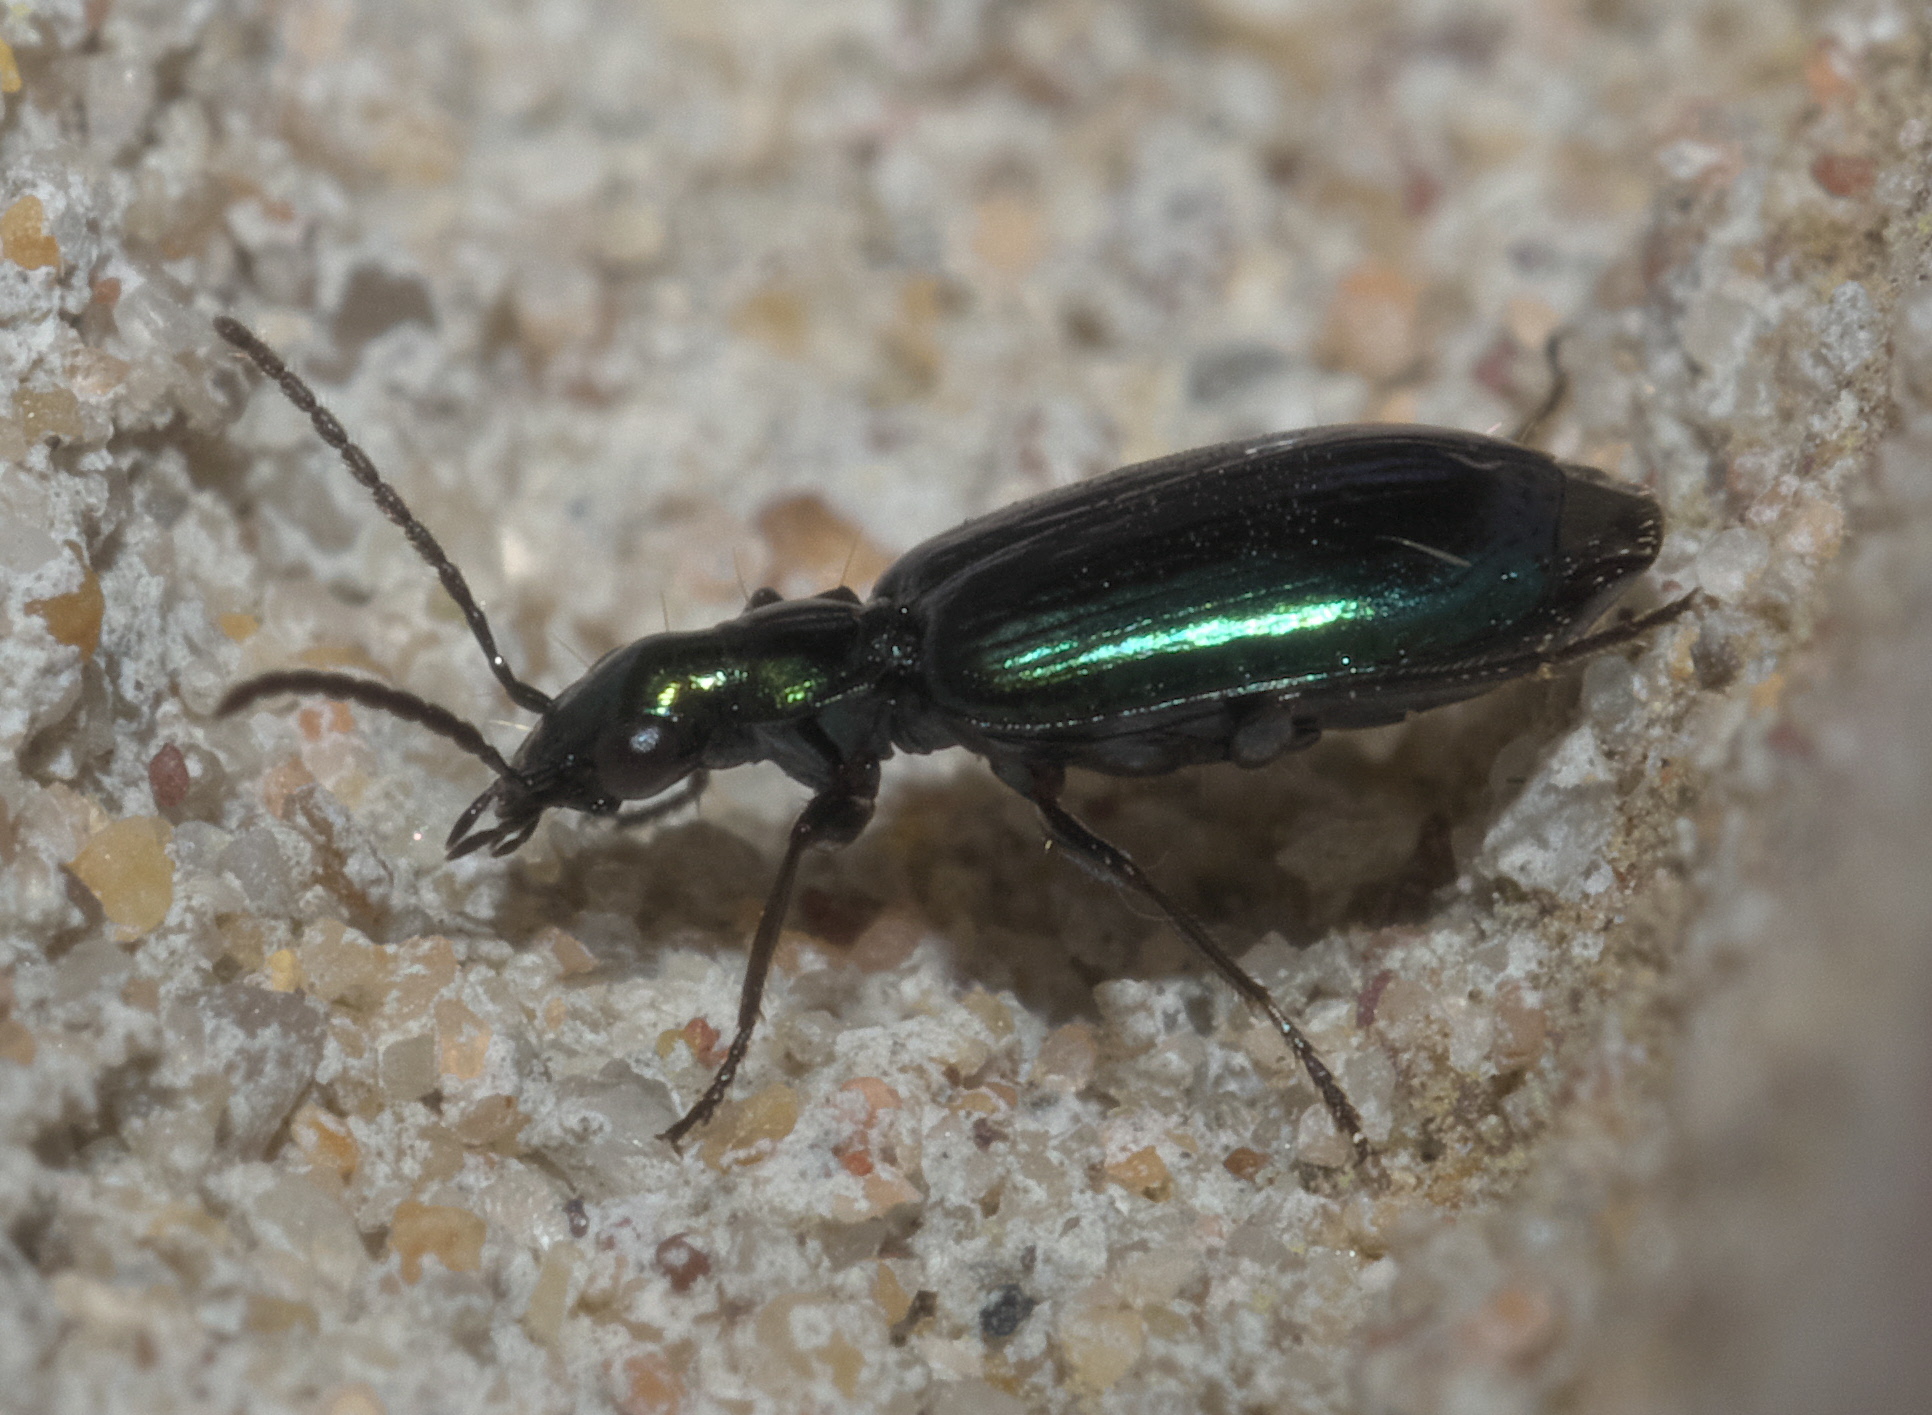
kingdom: Animalia
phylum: Arthropoda
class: Insecta
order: Coleoptera
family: Carabidae
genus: Lebia
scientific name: Lebia viridis
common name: Flower lebia beetle
